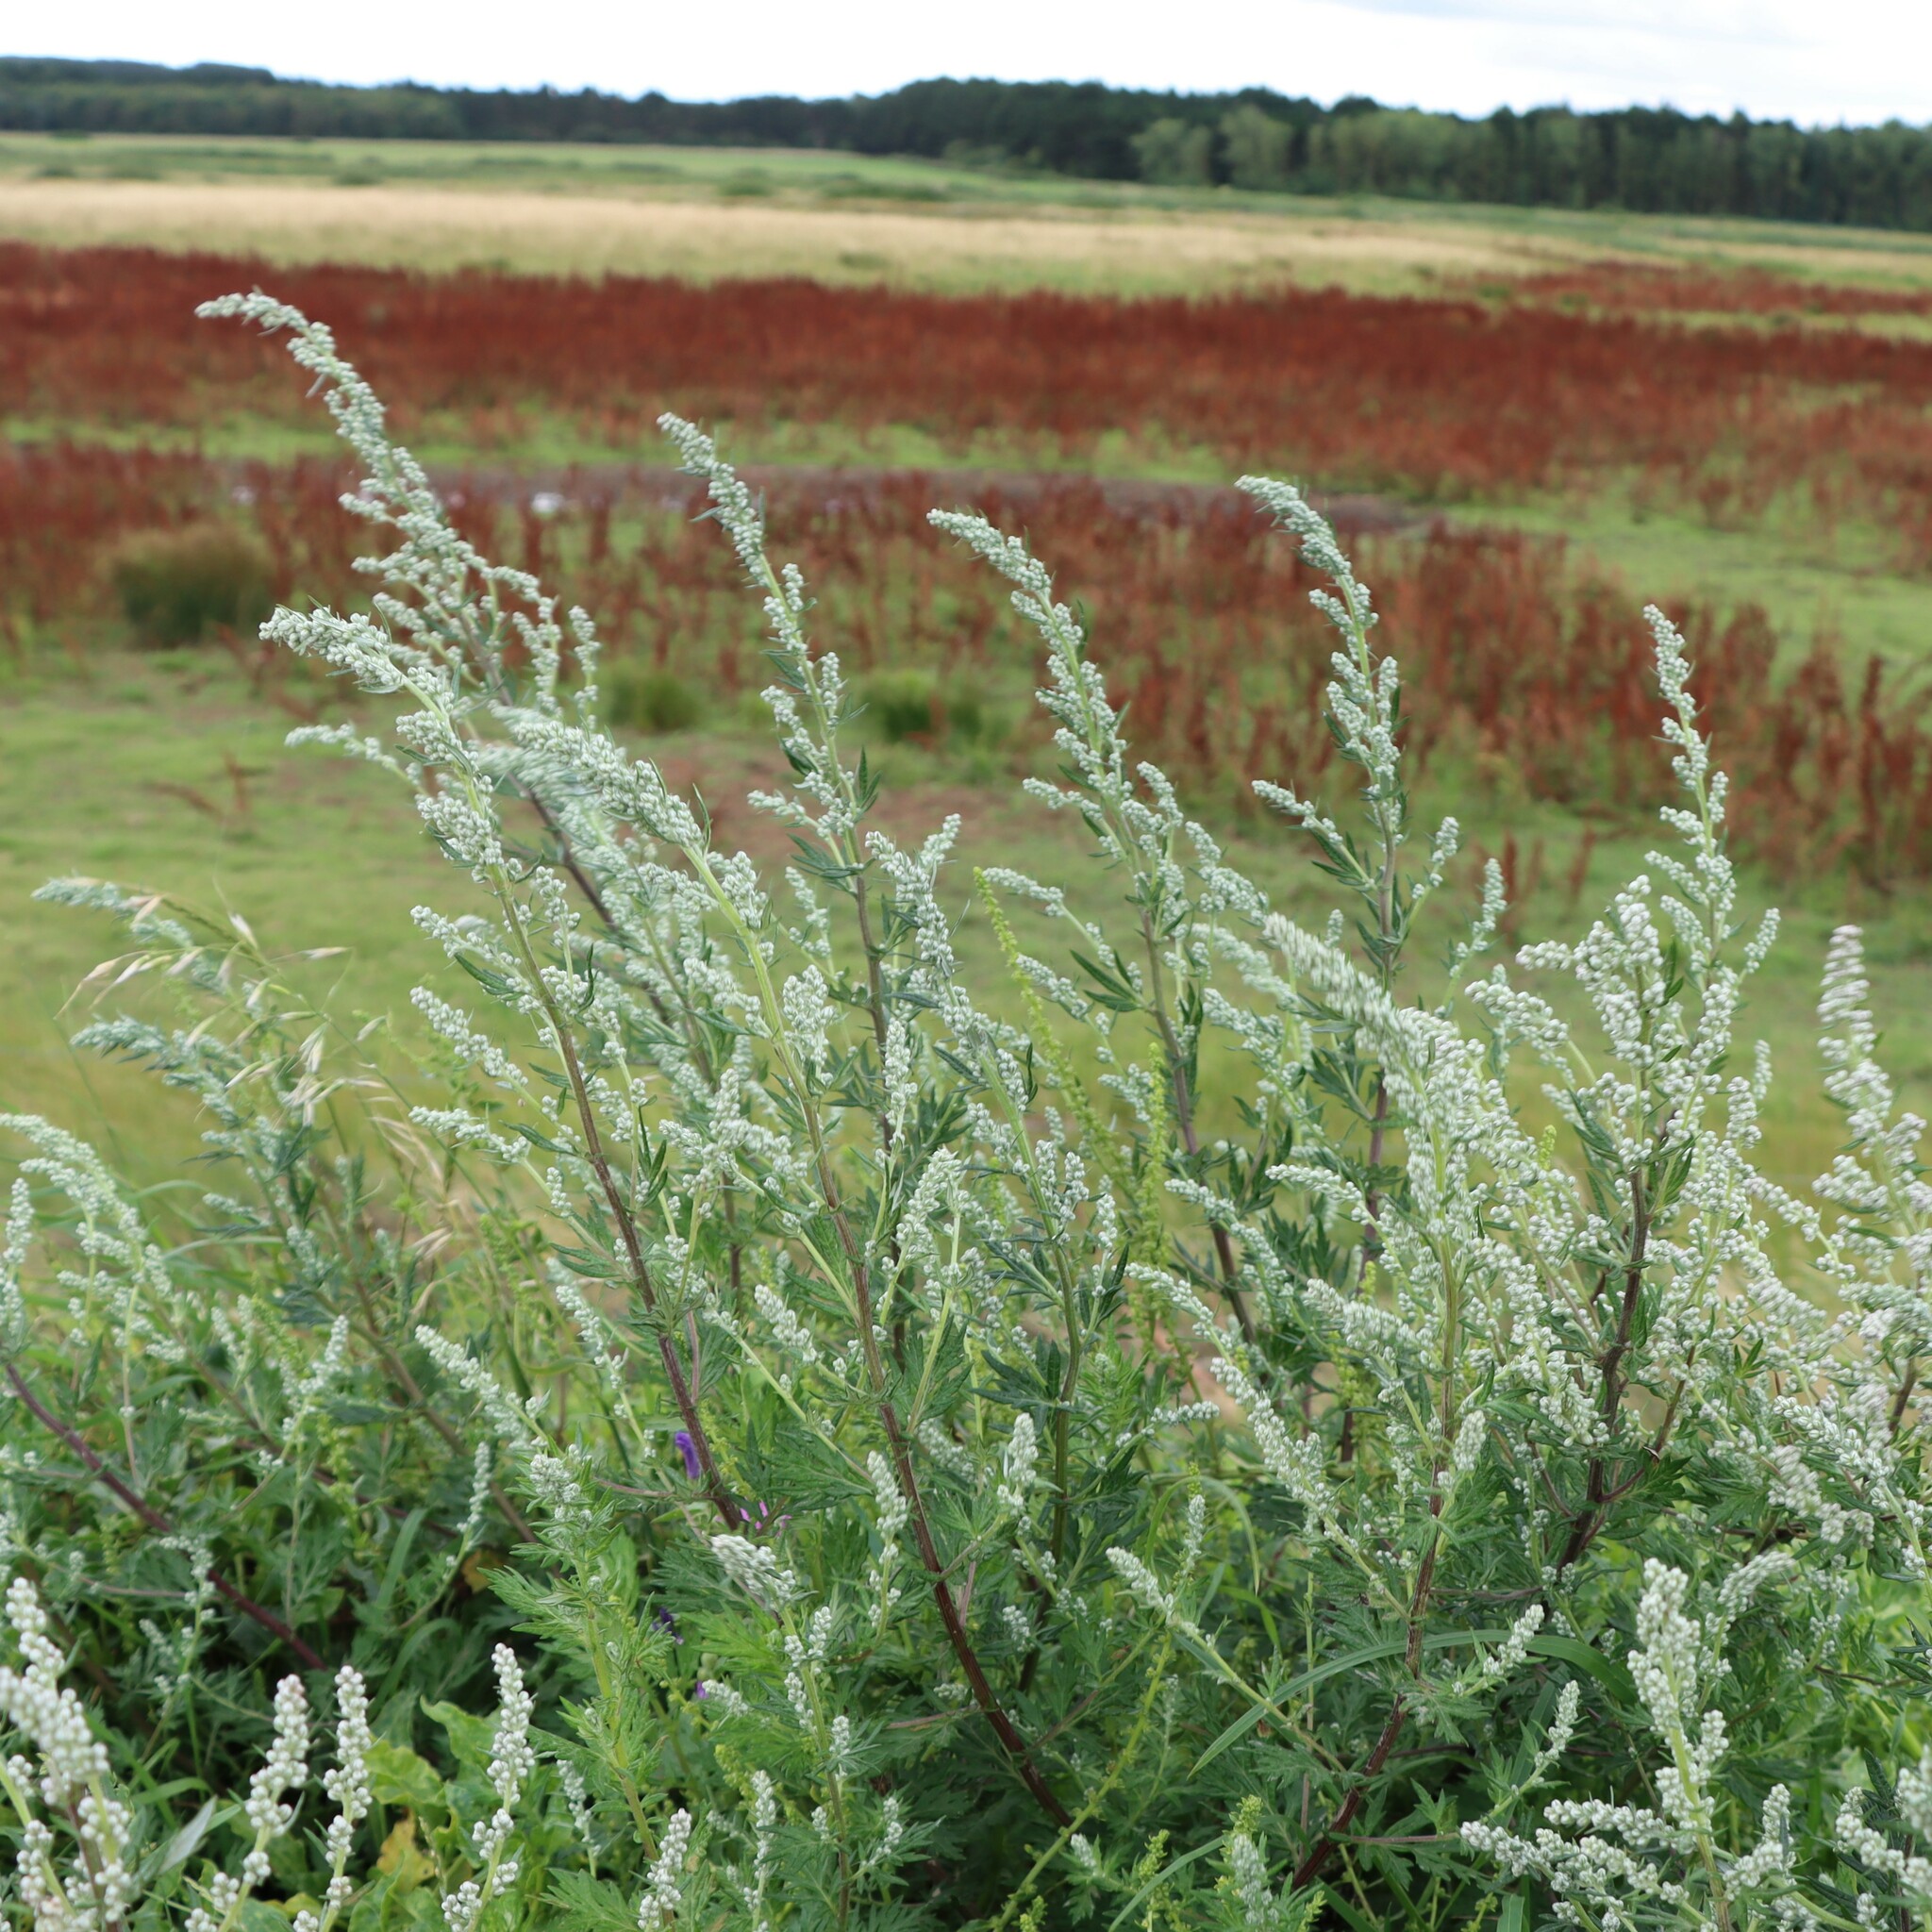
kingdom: Plantae
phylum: Tracheophyta
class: Magnoliopsida
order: Asterales
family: Asteraceae
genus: Artemisia
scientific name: Artemisia vulgaris
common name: Mugwort
